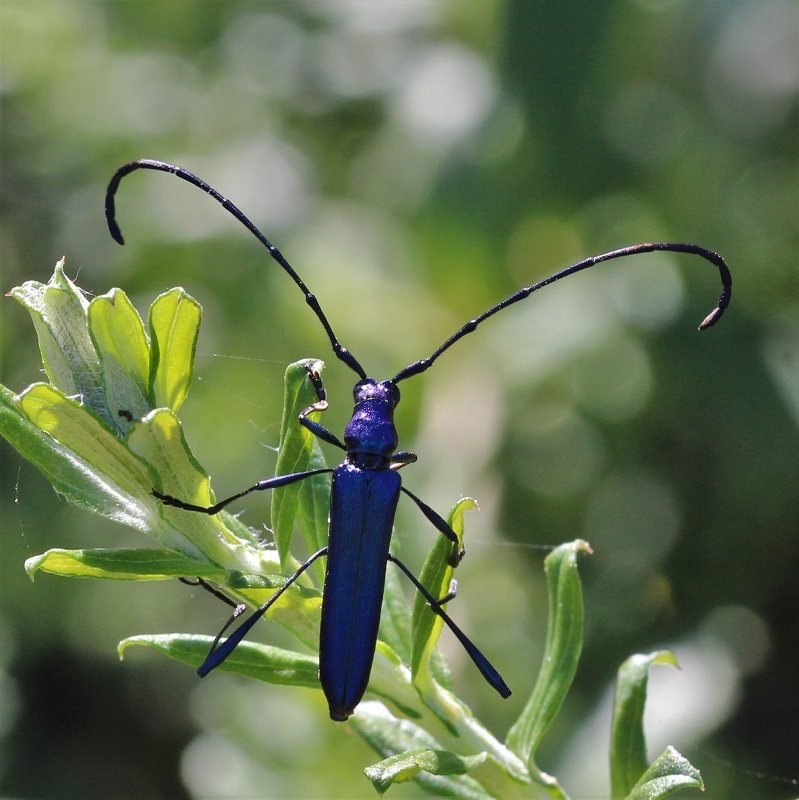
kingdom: Animalia
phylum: Arthropoda
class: Insecta
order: Coleoptera
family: Cerambycidae
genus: Promeces
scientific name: Promeces longipes
